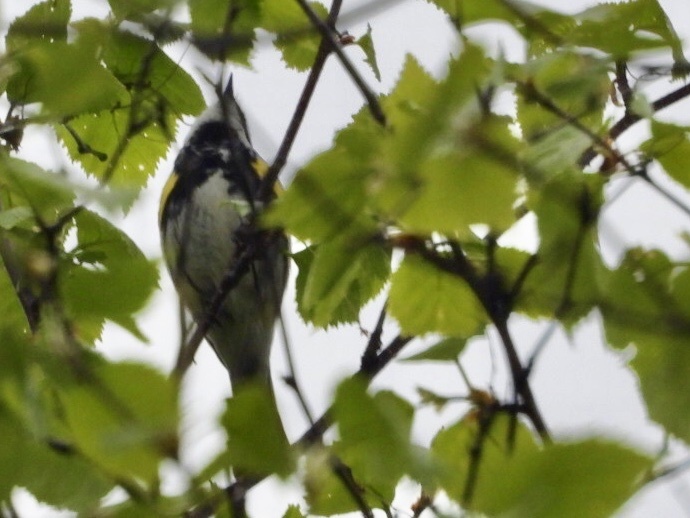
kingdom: Animalia
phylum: Chordata
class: Aves
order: Passeriformes
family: Parulidae
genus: Setophaga
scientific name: Setophaga coronata
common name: Myrtle warbler
